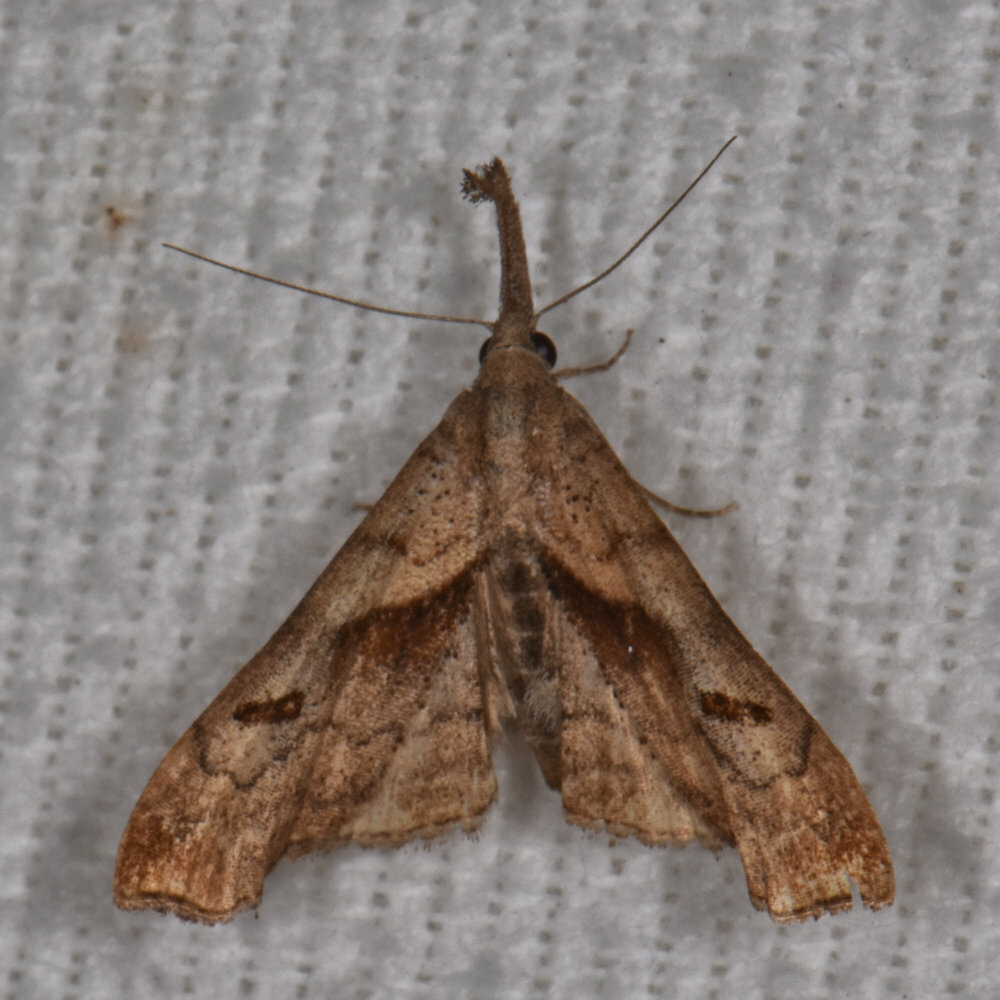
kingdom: Animalia
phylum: Arthropoda
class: Insecta
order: Lepidoptera
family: Erebidae
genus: Palthis
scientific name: Palthis angulalis
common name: Dark-spotted palthis moth
